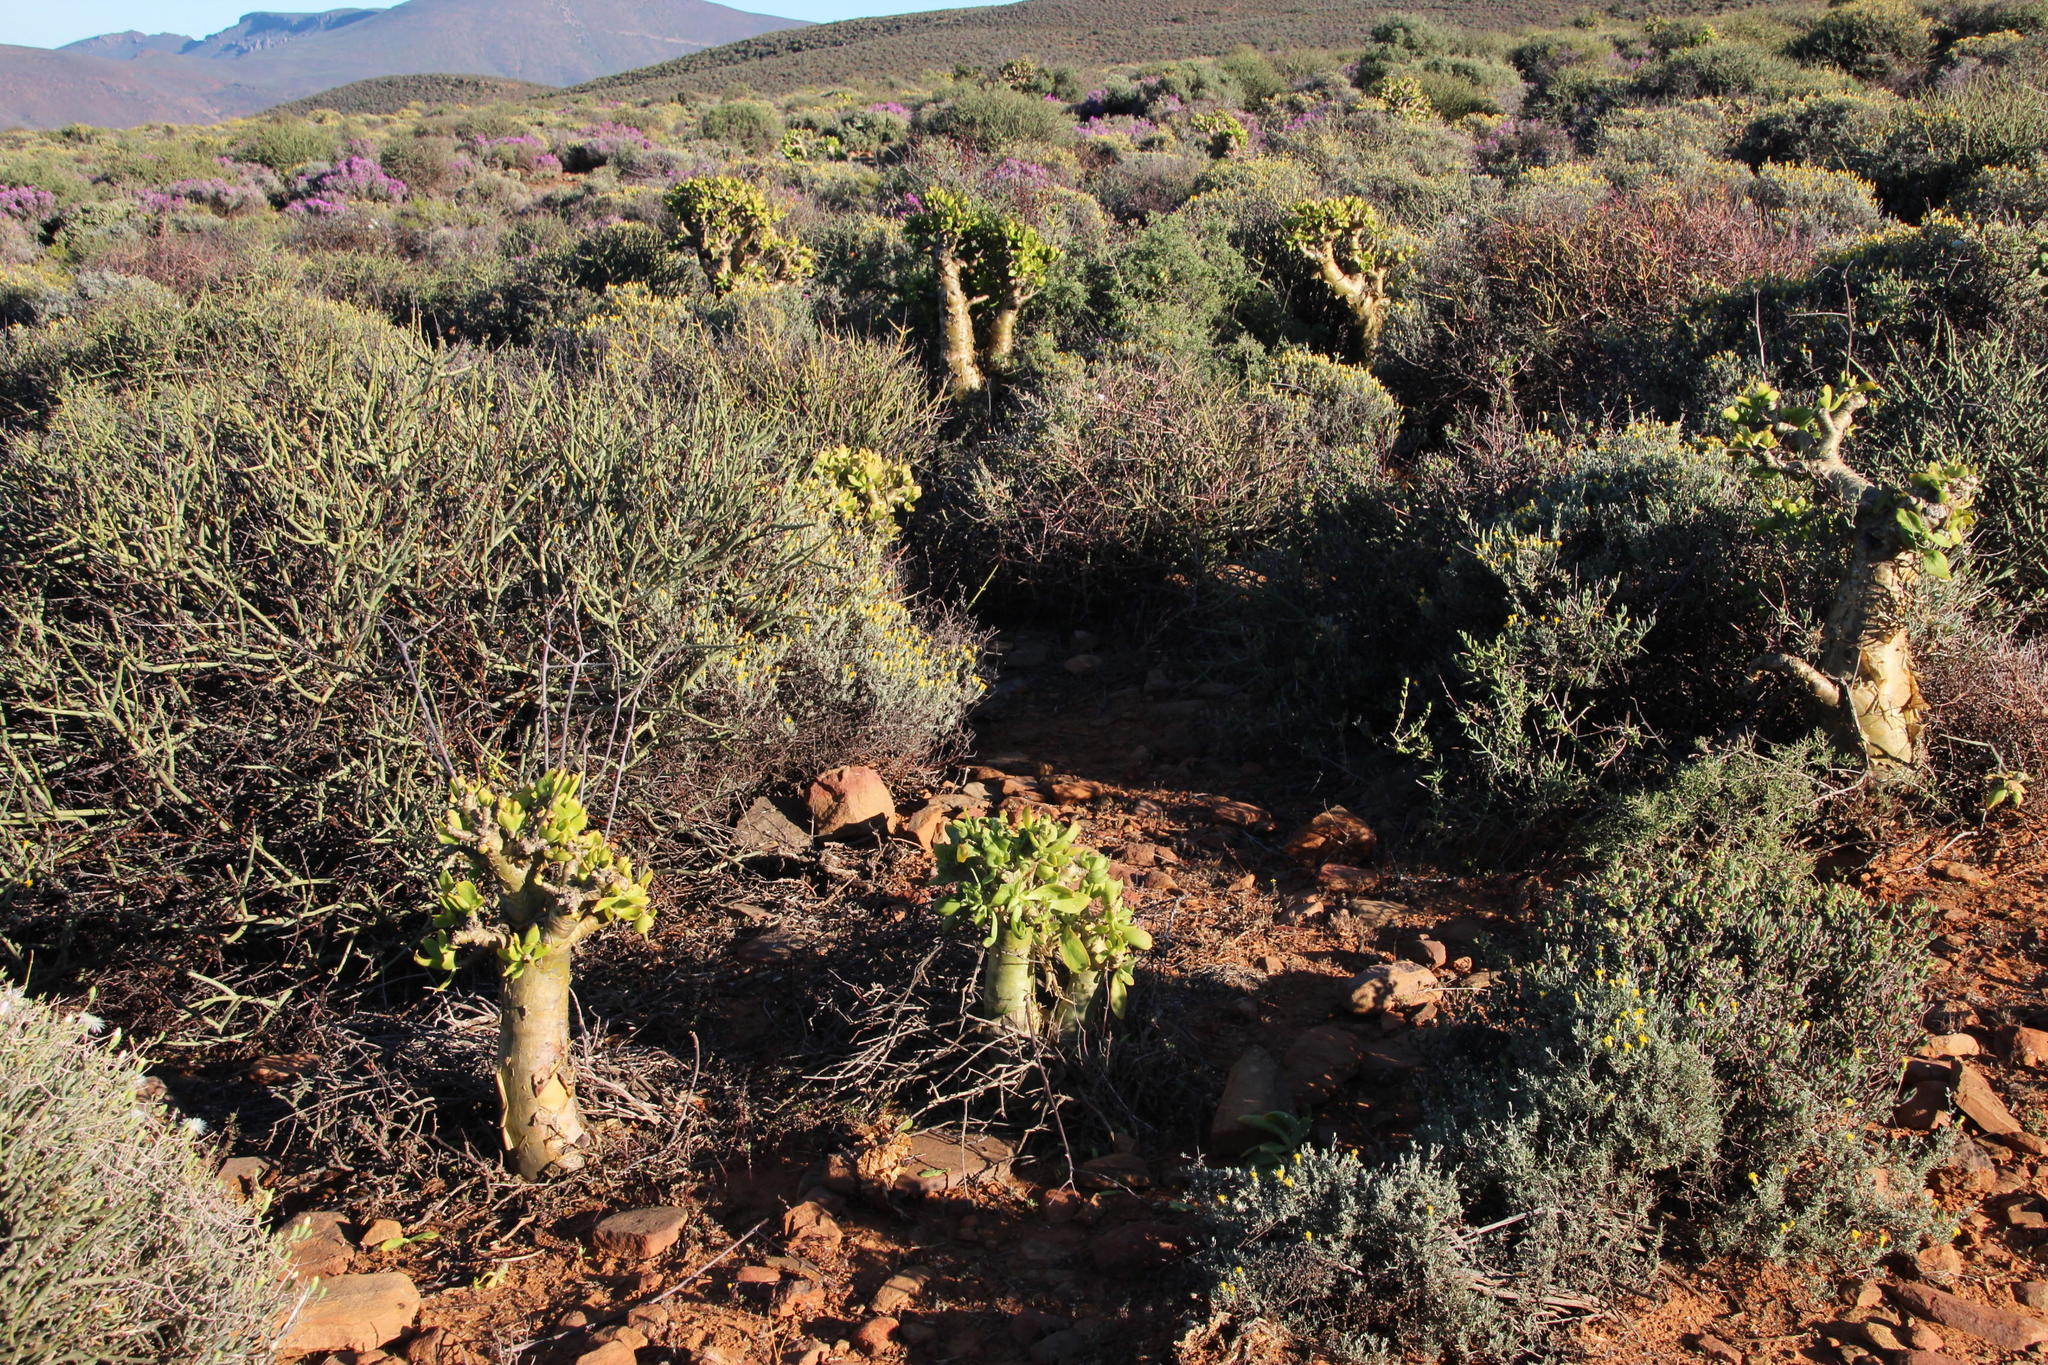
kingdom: Plantae
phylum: Tracheophyta
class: Magnoliopsida
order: Saxifragales
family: Crassulaceae
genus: Tylecodon
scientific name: Tylecodon paniculatus
